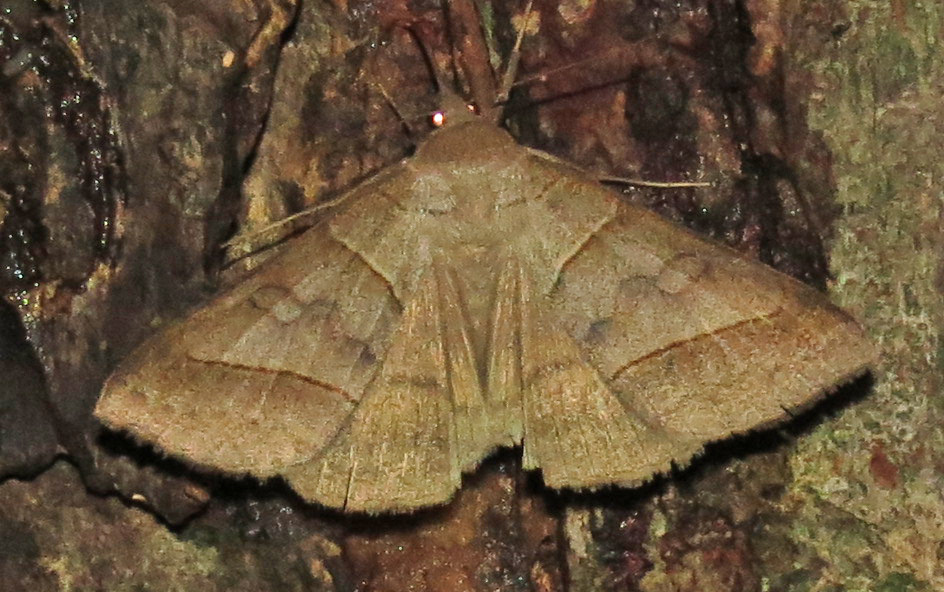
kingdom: Animalia
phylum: Arthropoda
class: Insecta
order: Lepidoptera
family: Erebidae
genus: Mocis
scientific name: Mocis texana
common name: Texas mocis moth
